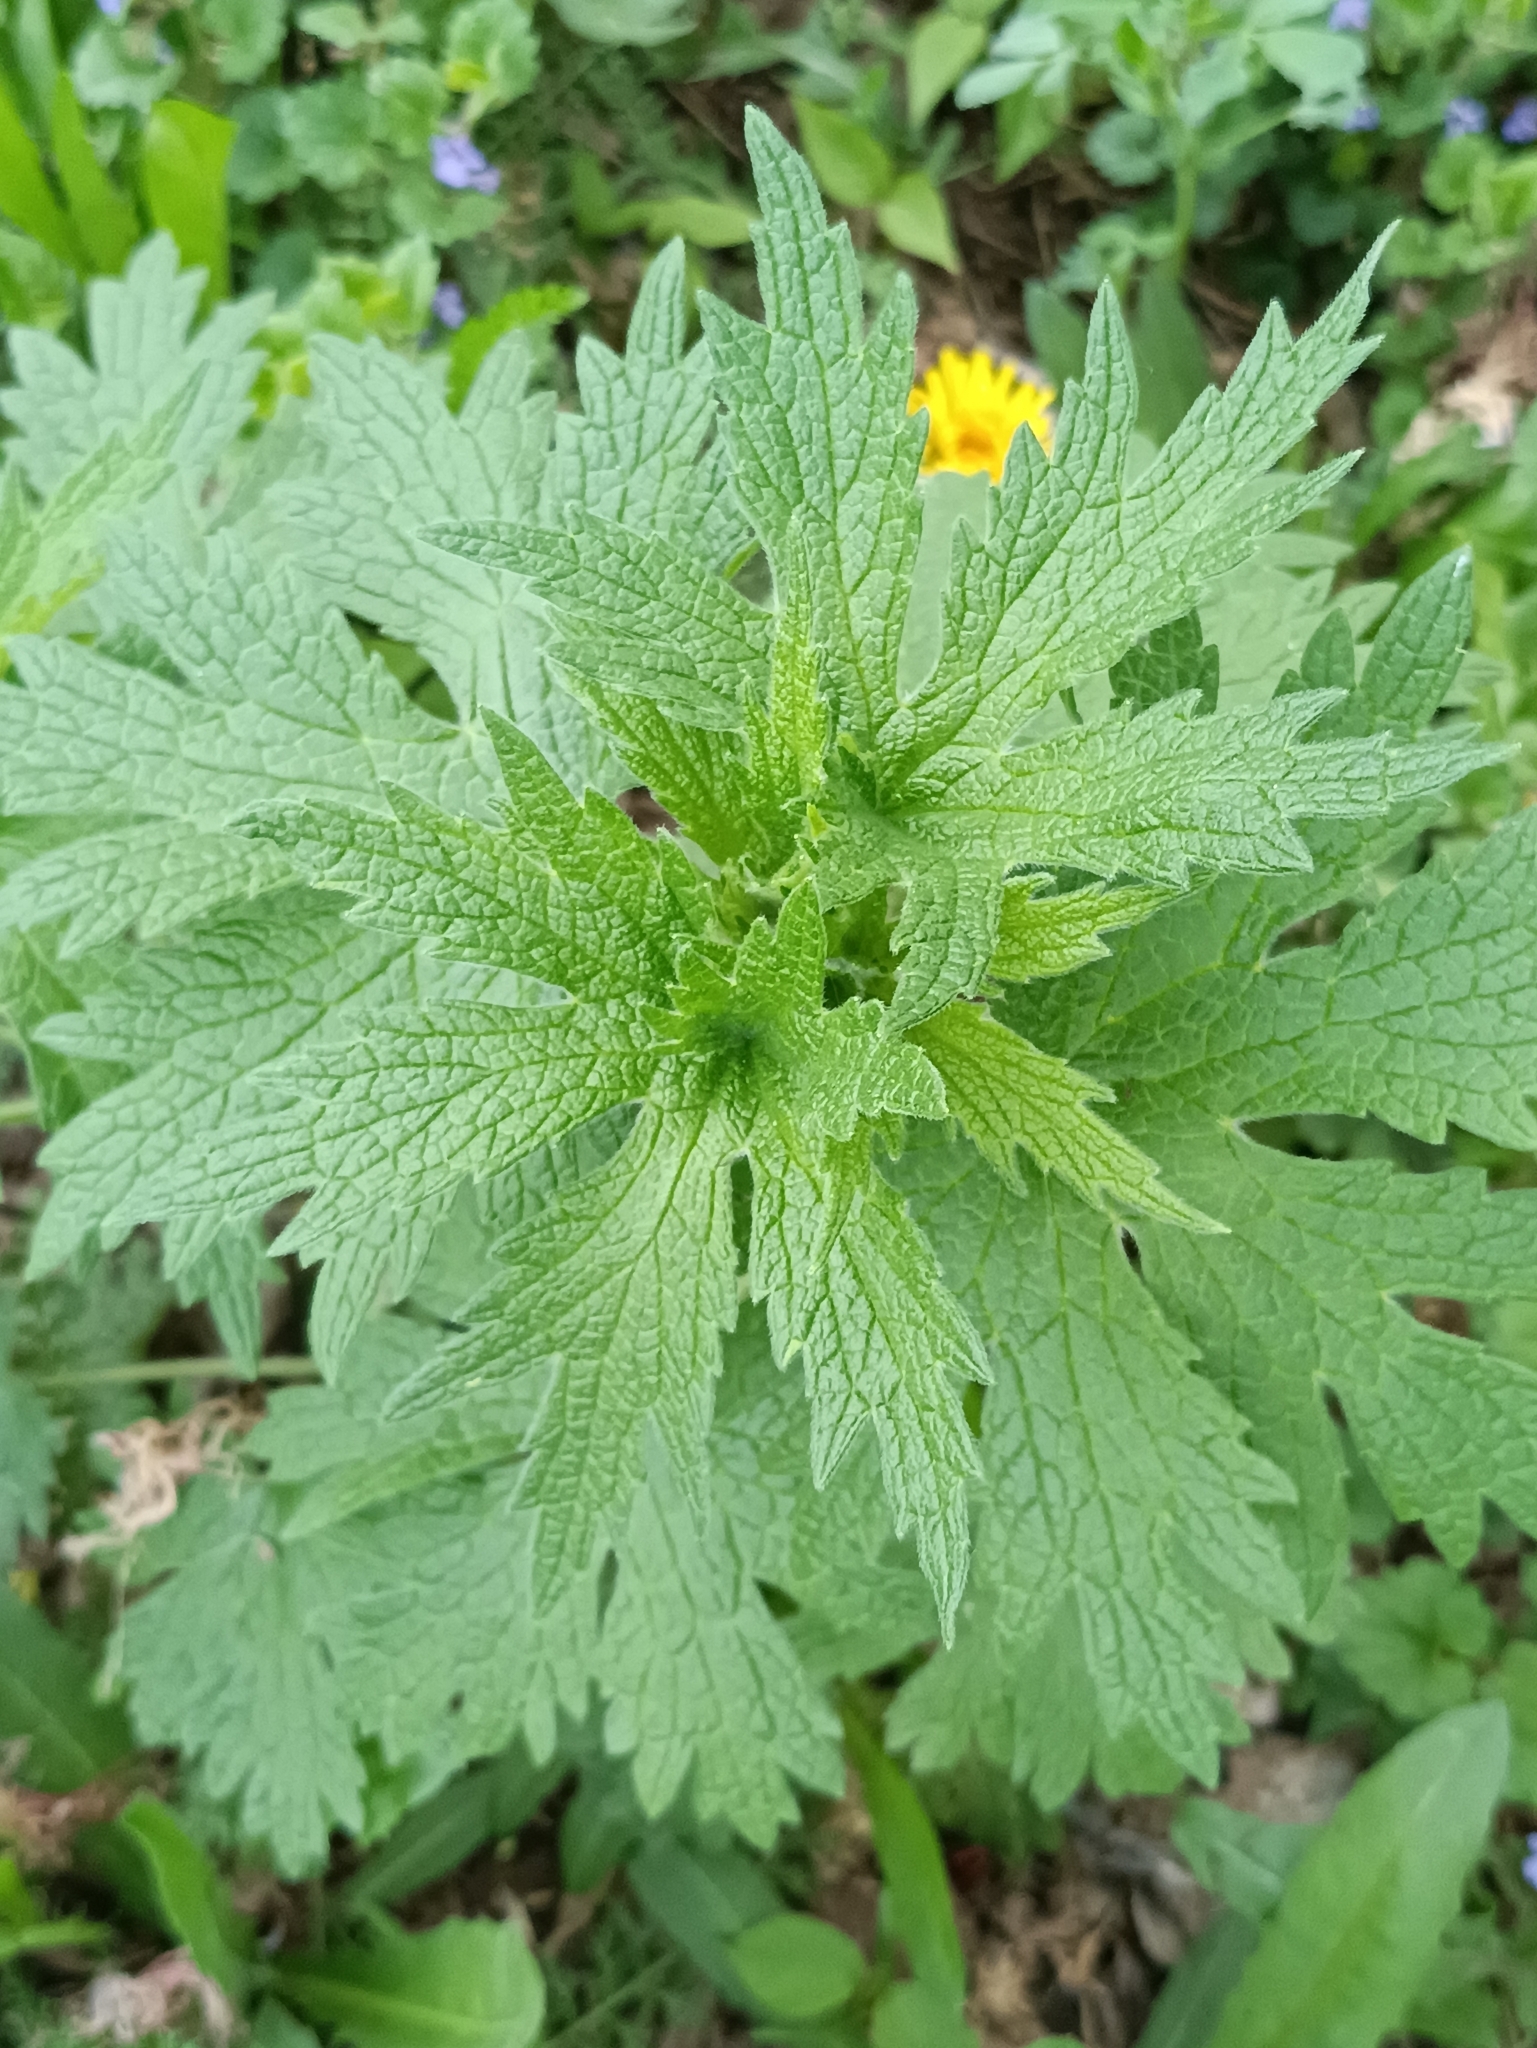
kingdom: Plantae
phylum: Tracheophyta
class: Magnoliopsida
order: Lamiales
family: Lamiaceae
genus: Leonurus
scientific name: Leonurus quinquelobatus
